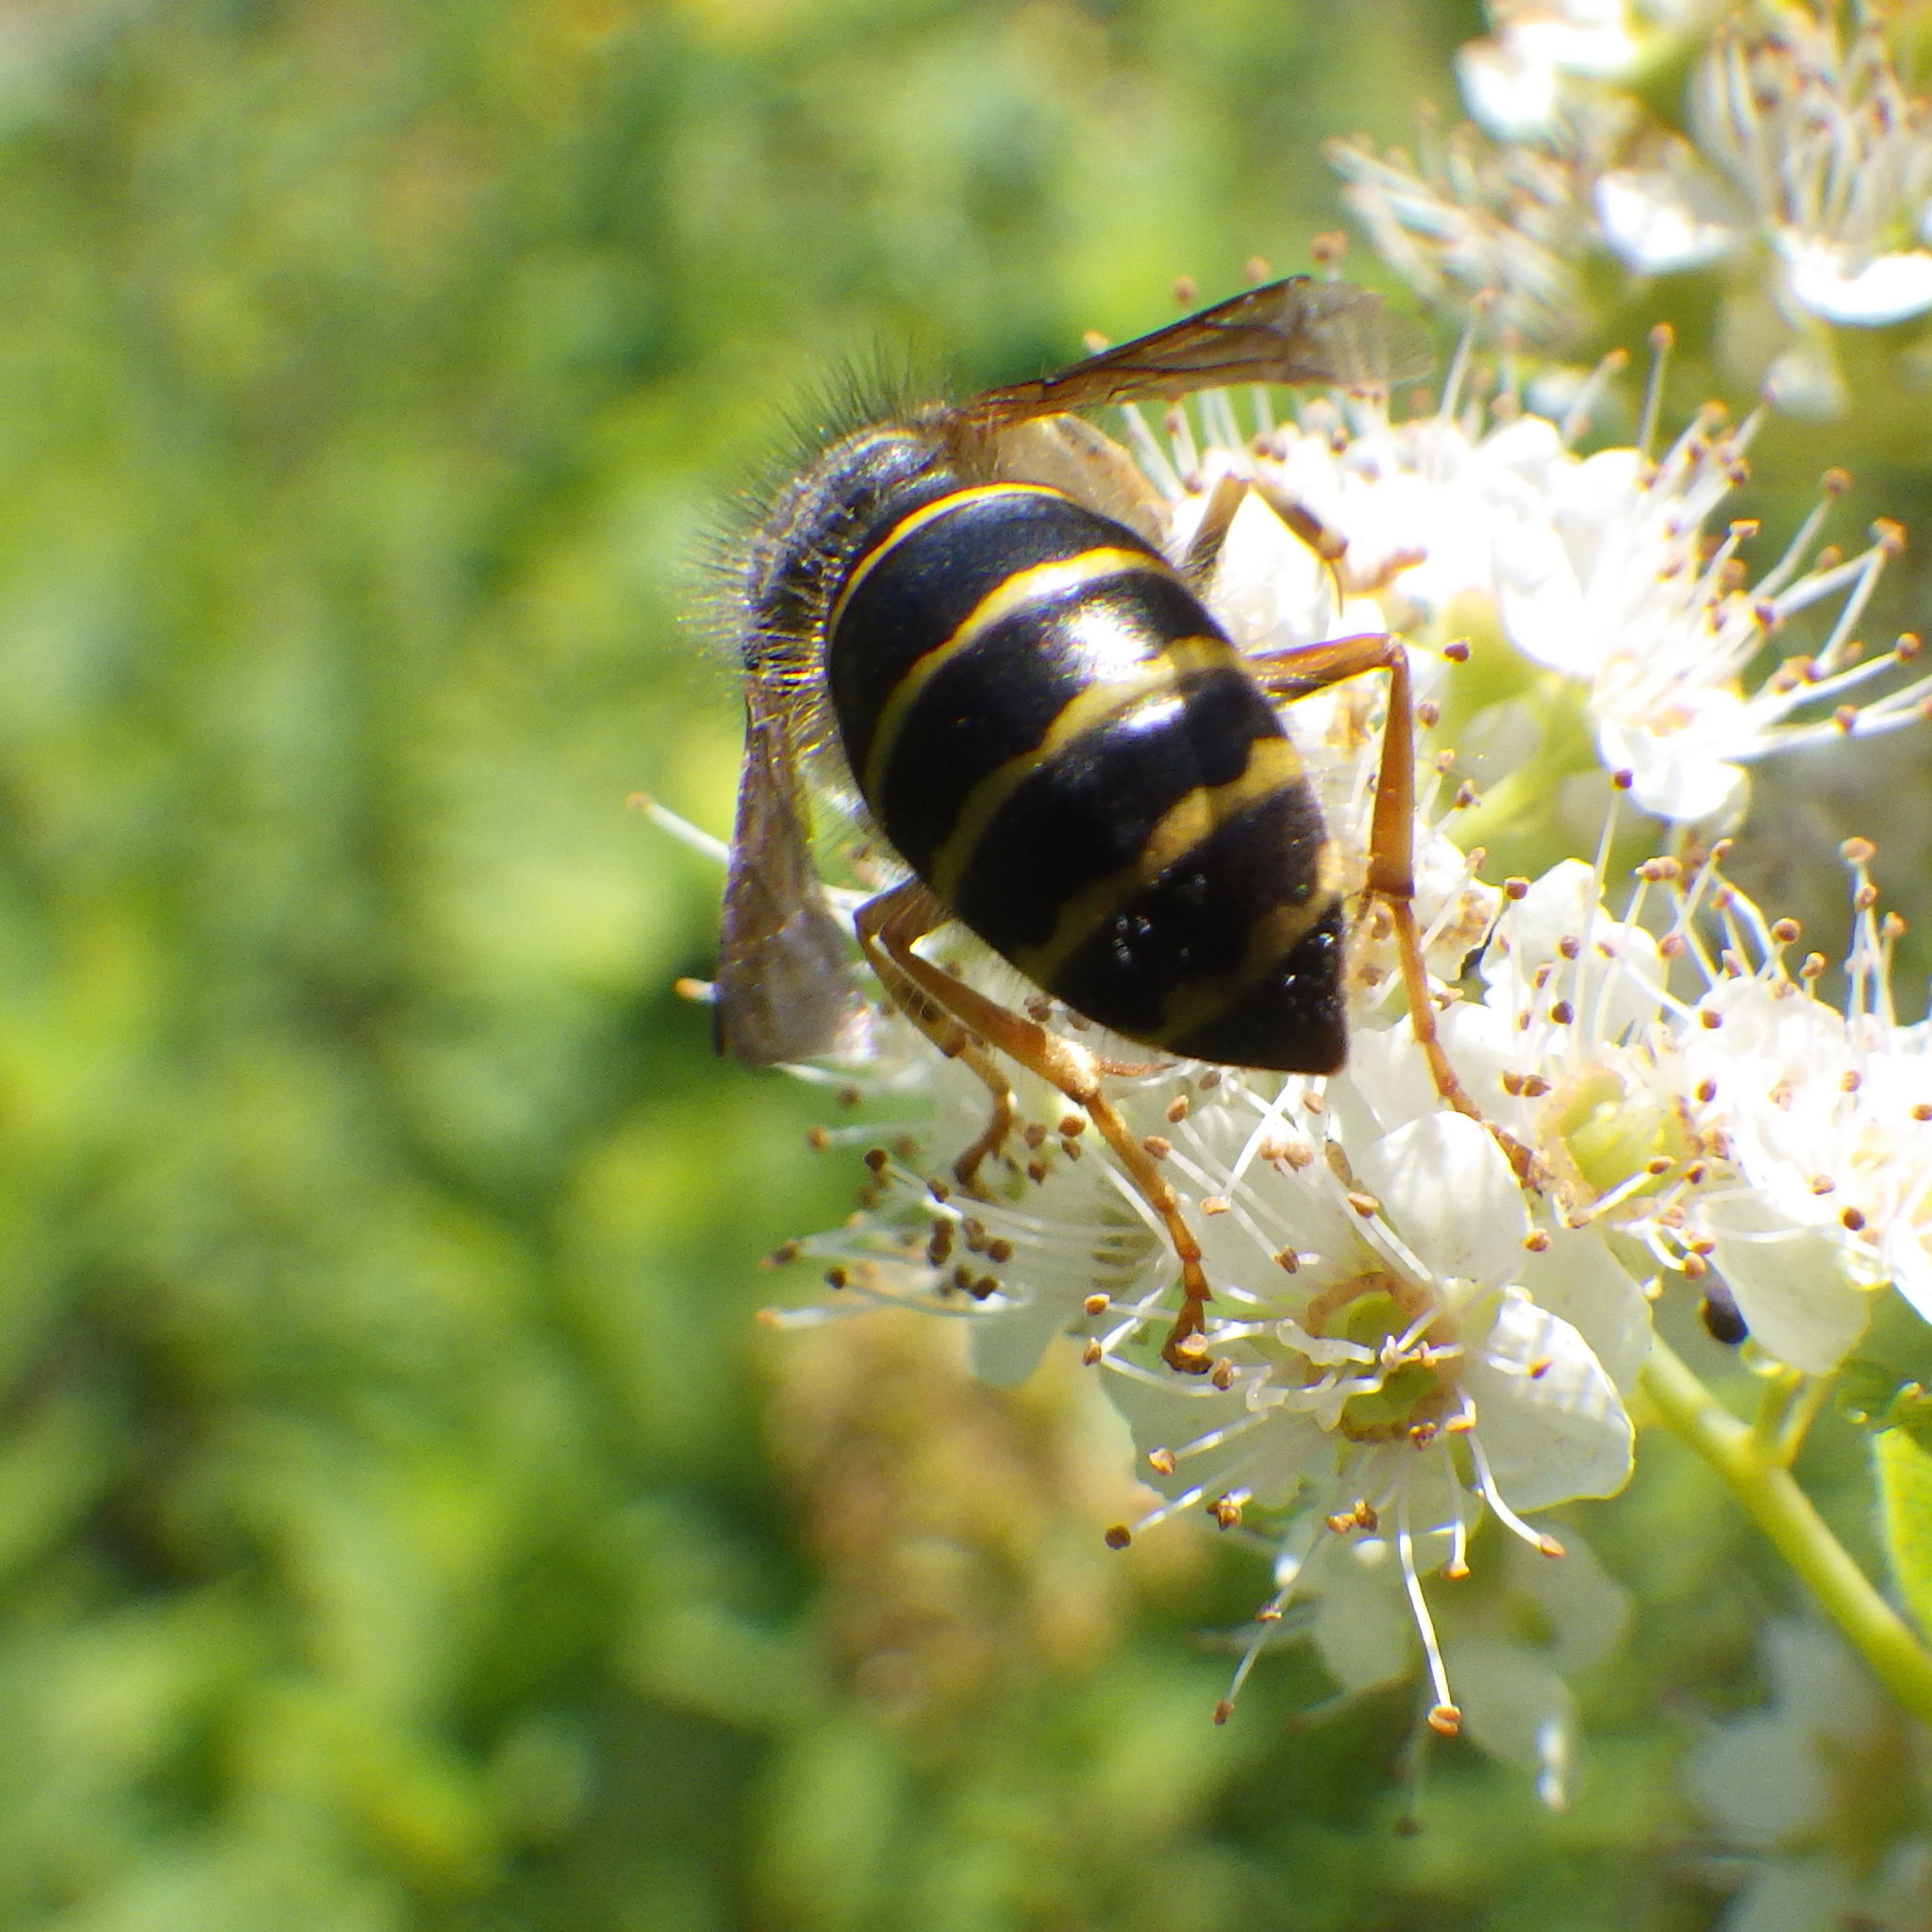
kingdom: Animalia
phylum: Arthropoda
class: Insecta
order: Hymenoptera
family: Vespidae
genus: Dolichovespula
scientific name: Dolichovespula norvegicoides
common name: Northern aerial yellowjacket
